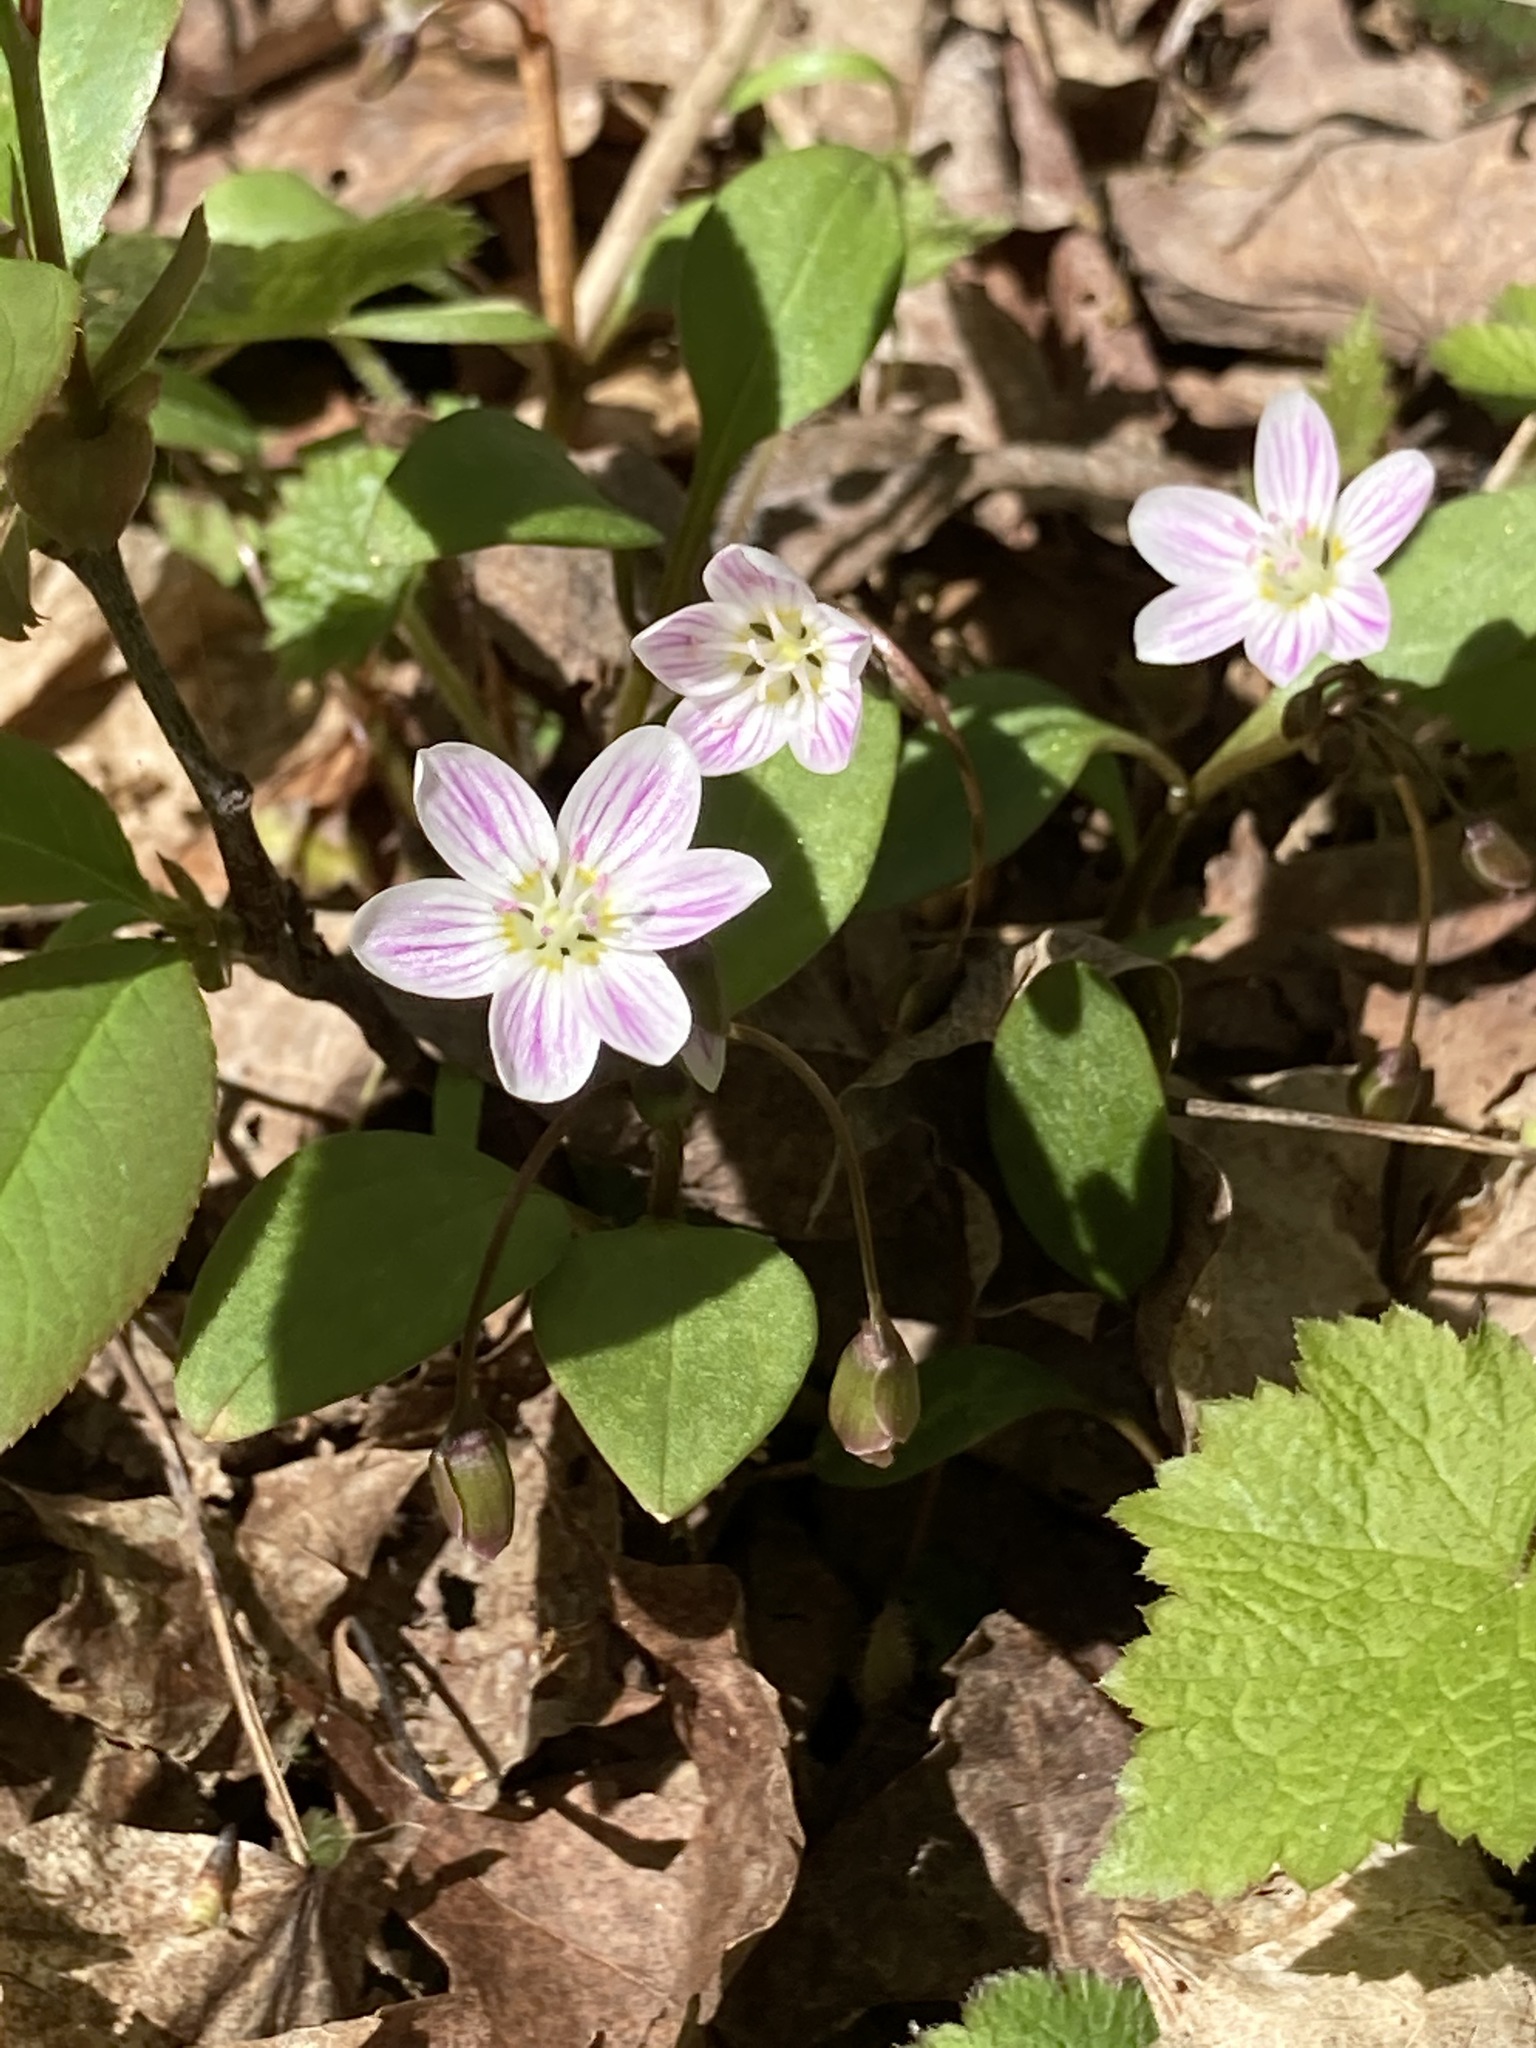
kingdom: Plantae
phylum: Tracheophyta
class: Magnoliopsida
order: Caryophyllales
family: Montiaceae
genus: Claytonia
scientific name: Claytonia caroliniana
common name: Carolina spring beauty
